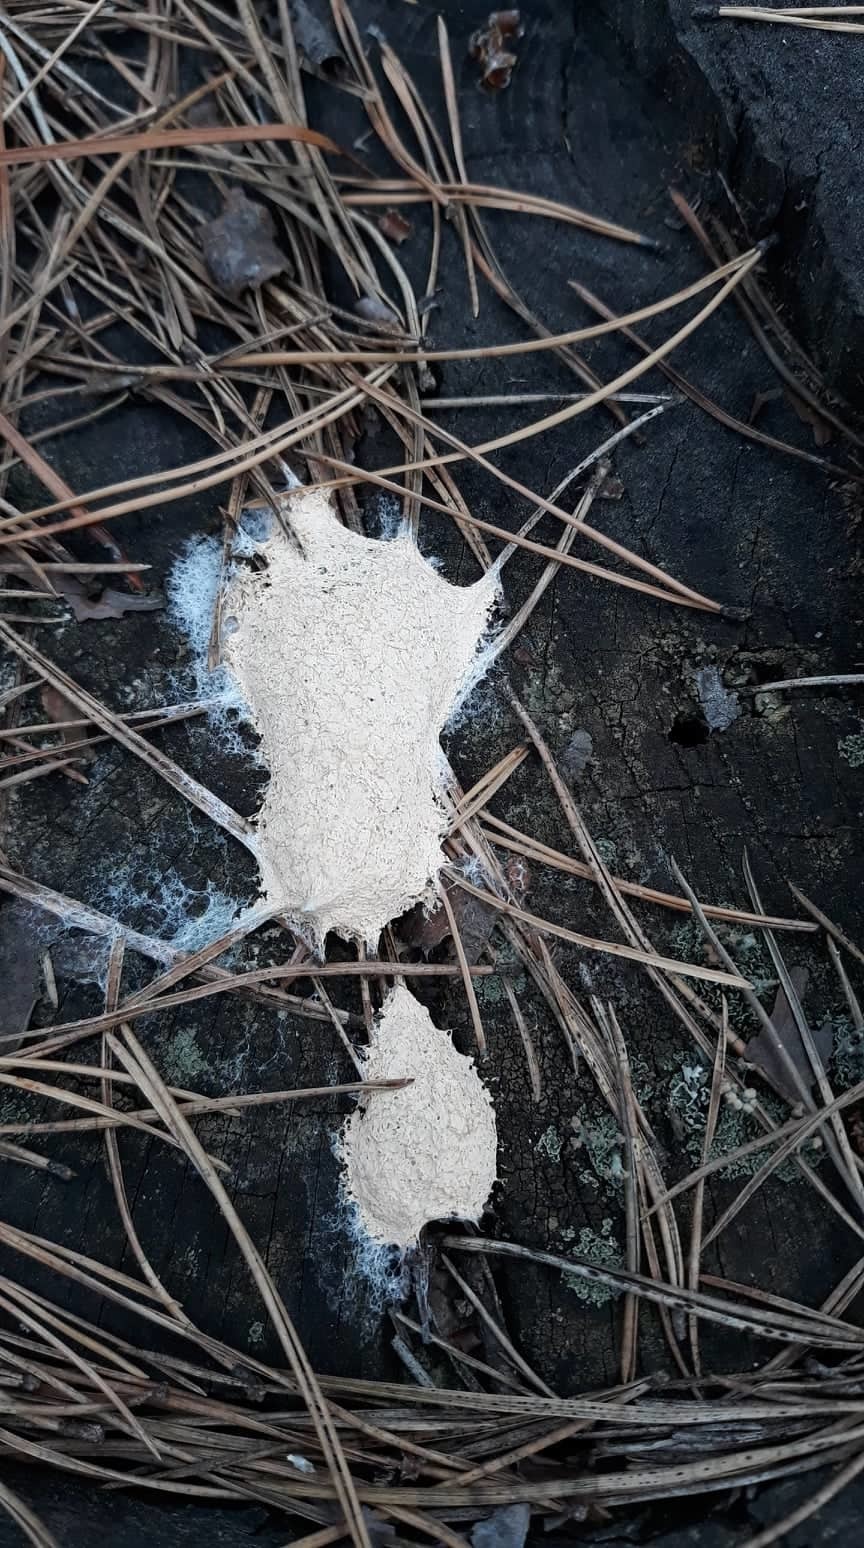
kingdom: Protozoa
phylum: Mycetozoa
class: Myxomycetes
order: Physarales
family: Physaraceae
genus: Fuligo
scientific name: Fuligo septica
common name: Dog vomit slime mold
